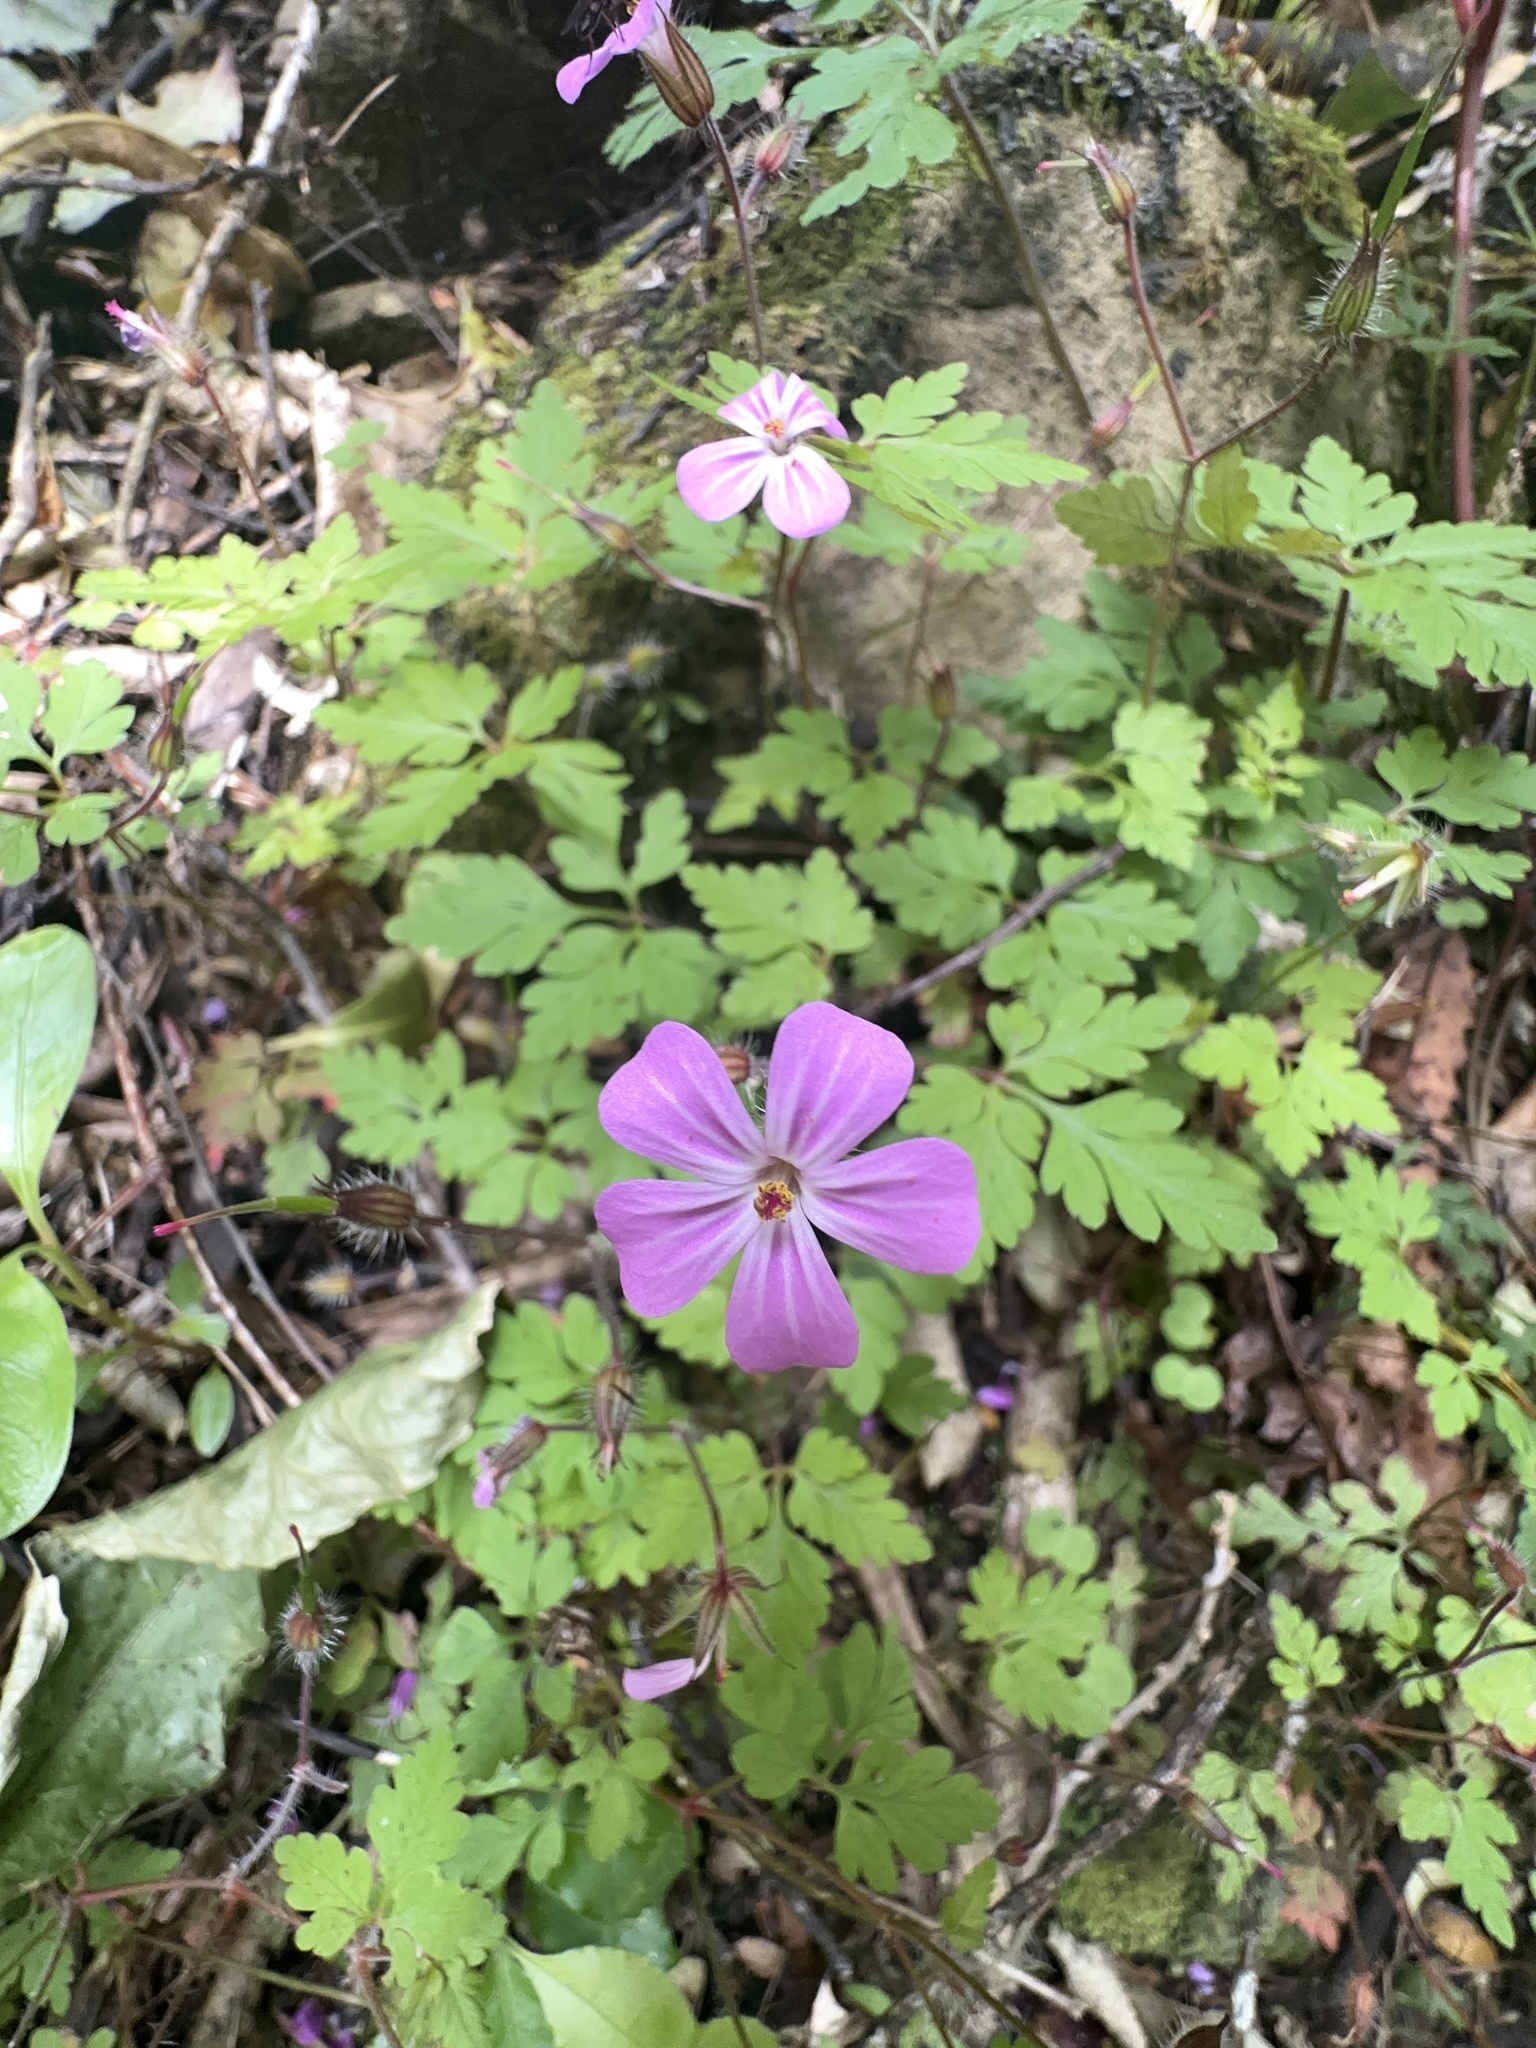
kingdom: Plantae
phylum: Tracheophyta
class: Magnoliopsida
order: Geraniales
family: Geraniaceae
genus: Geranium
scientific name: Geranium robertianum
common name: Herb-robert
